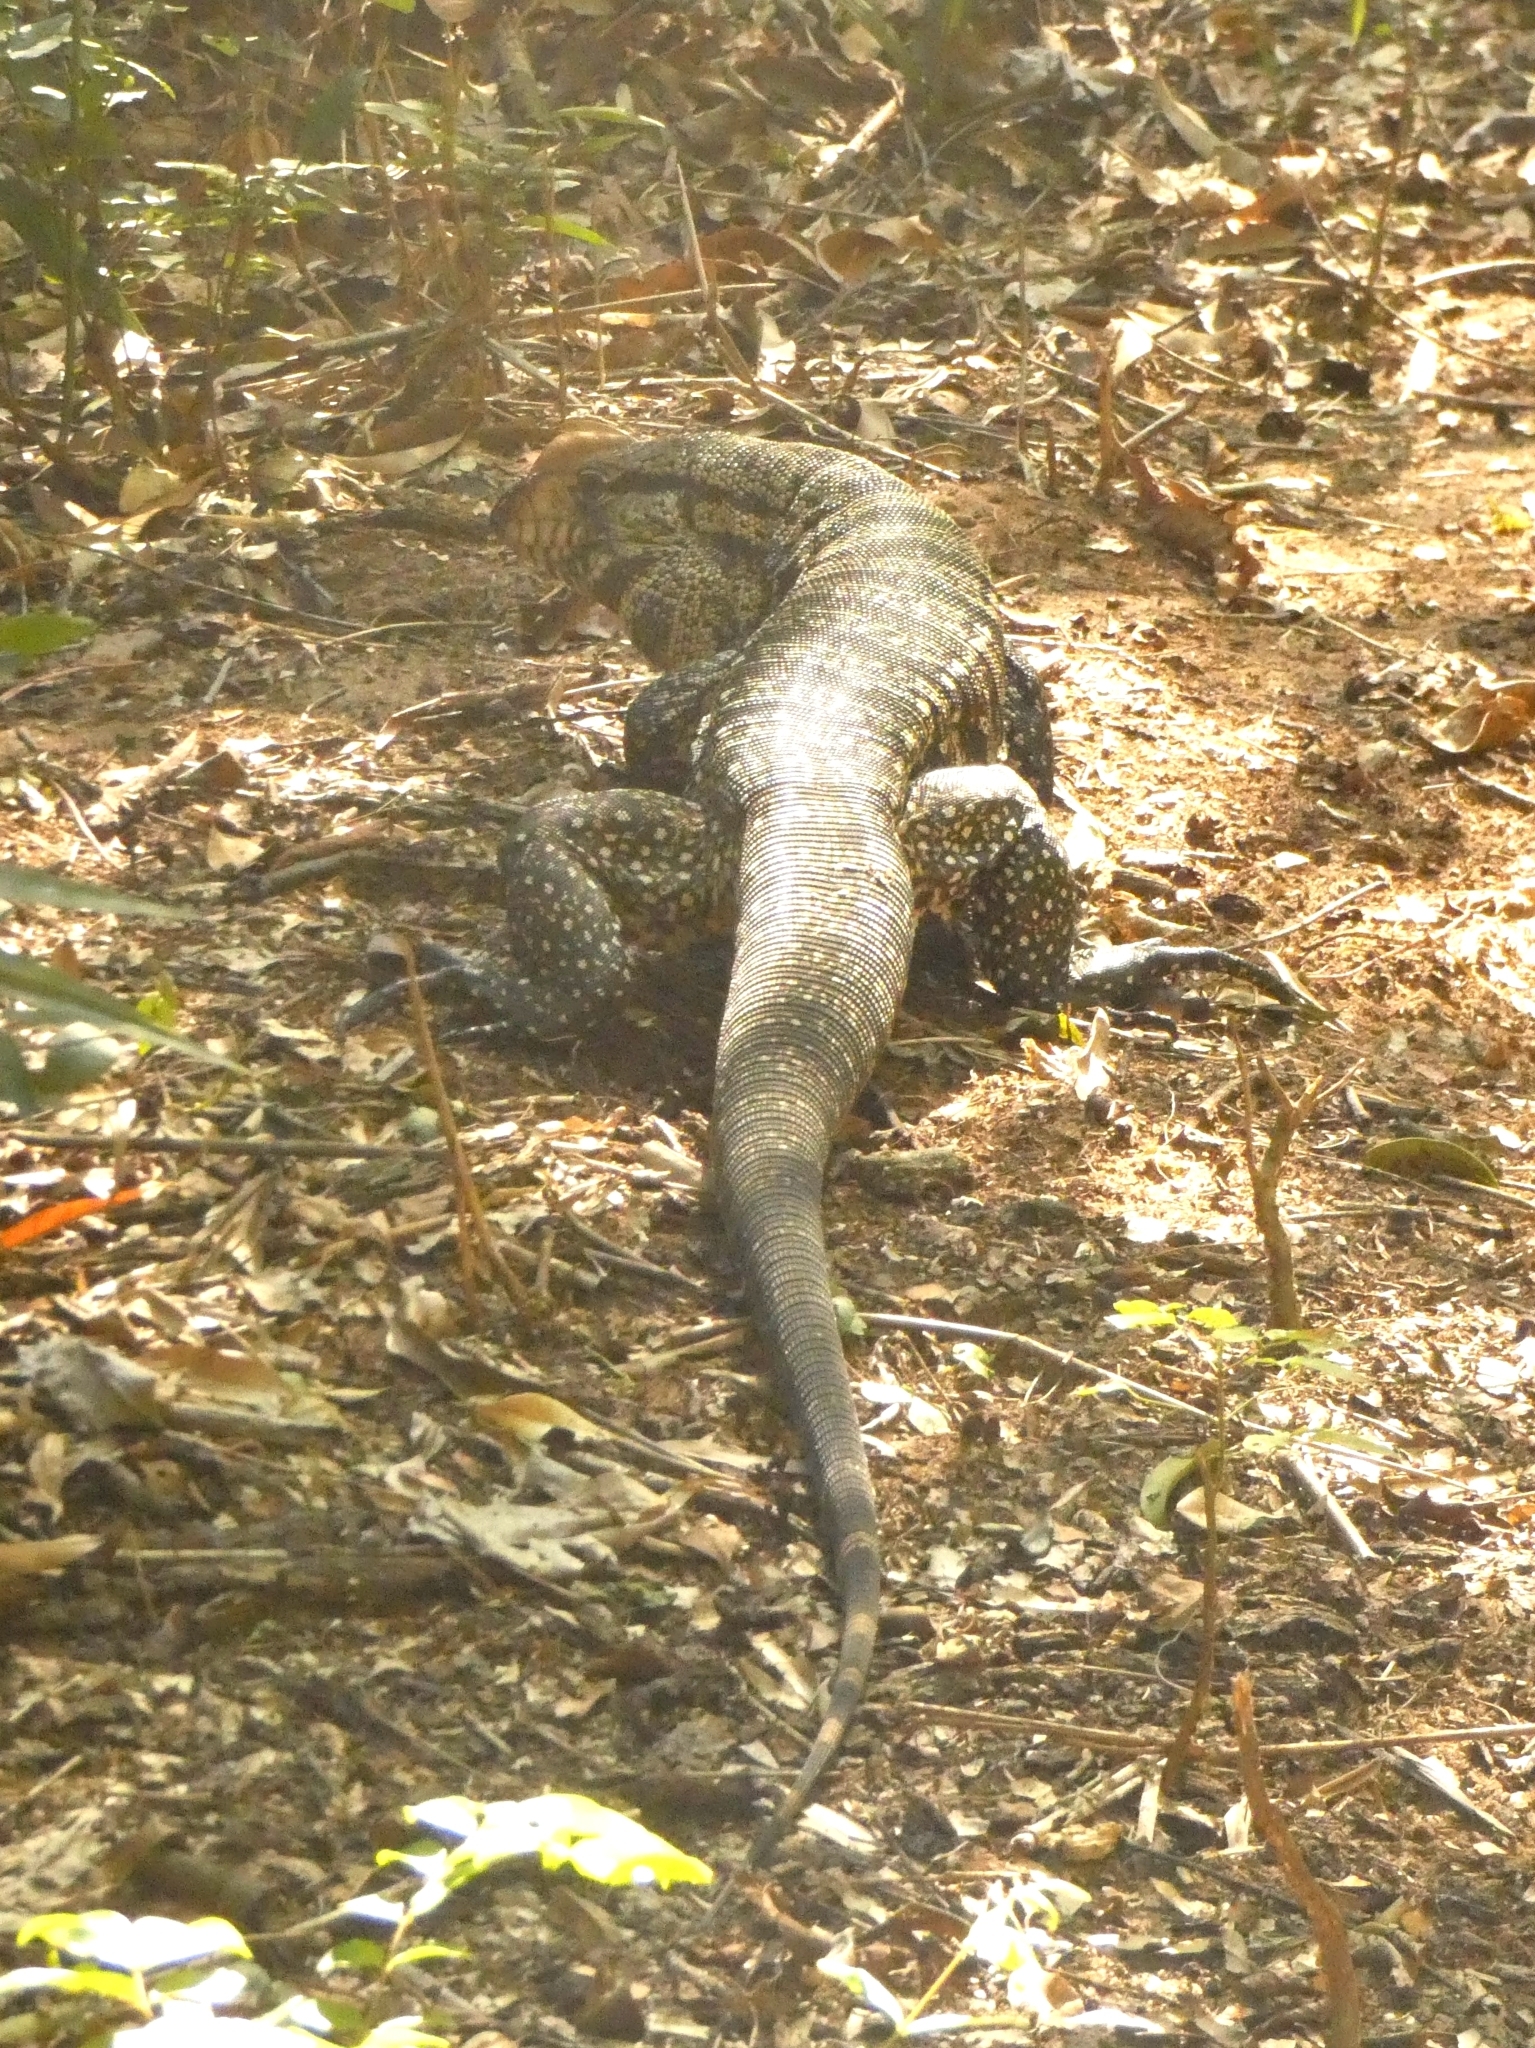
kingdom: Animalia
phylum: Chordata
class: Squamata
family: Teiidae
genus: Salvator
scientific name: Salvator merianae
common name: Argentine black and white tegu
